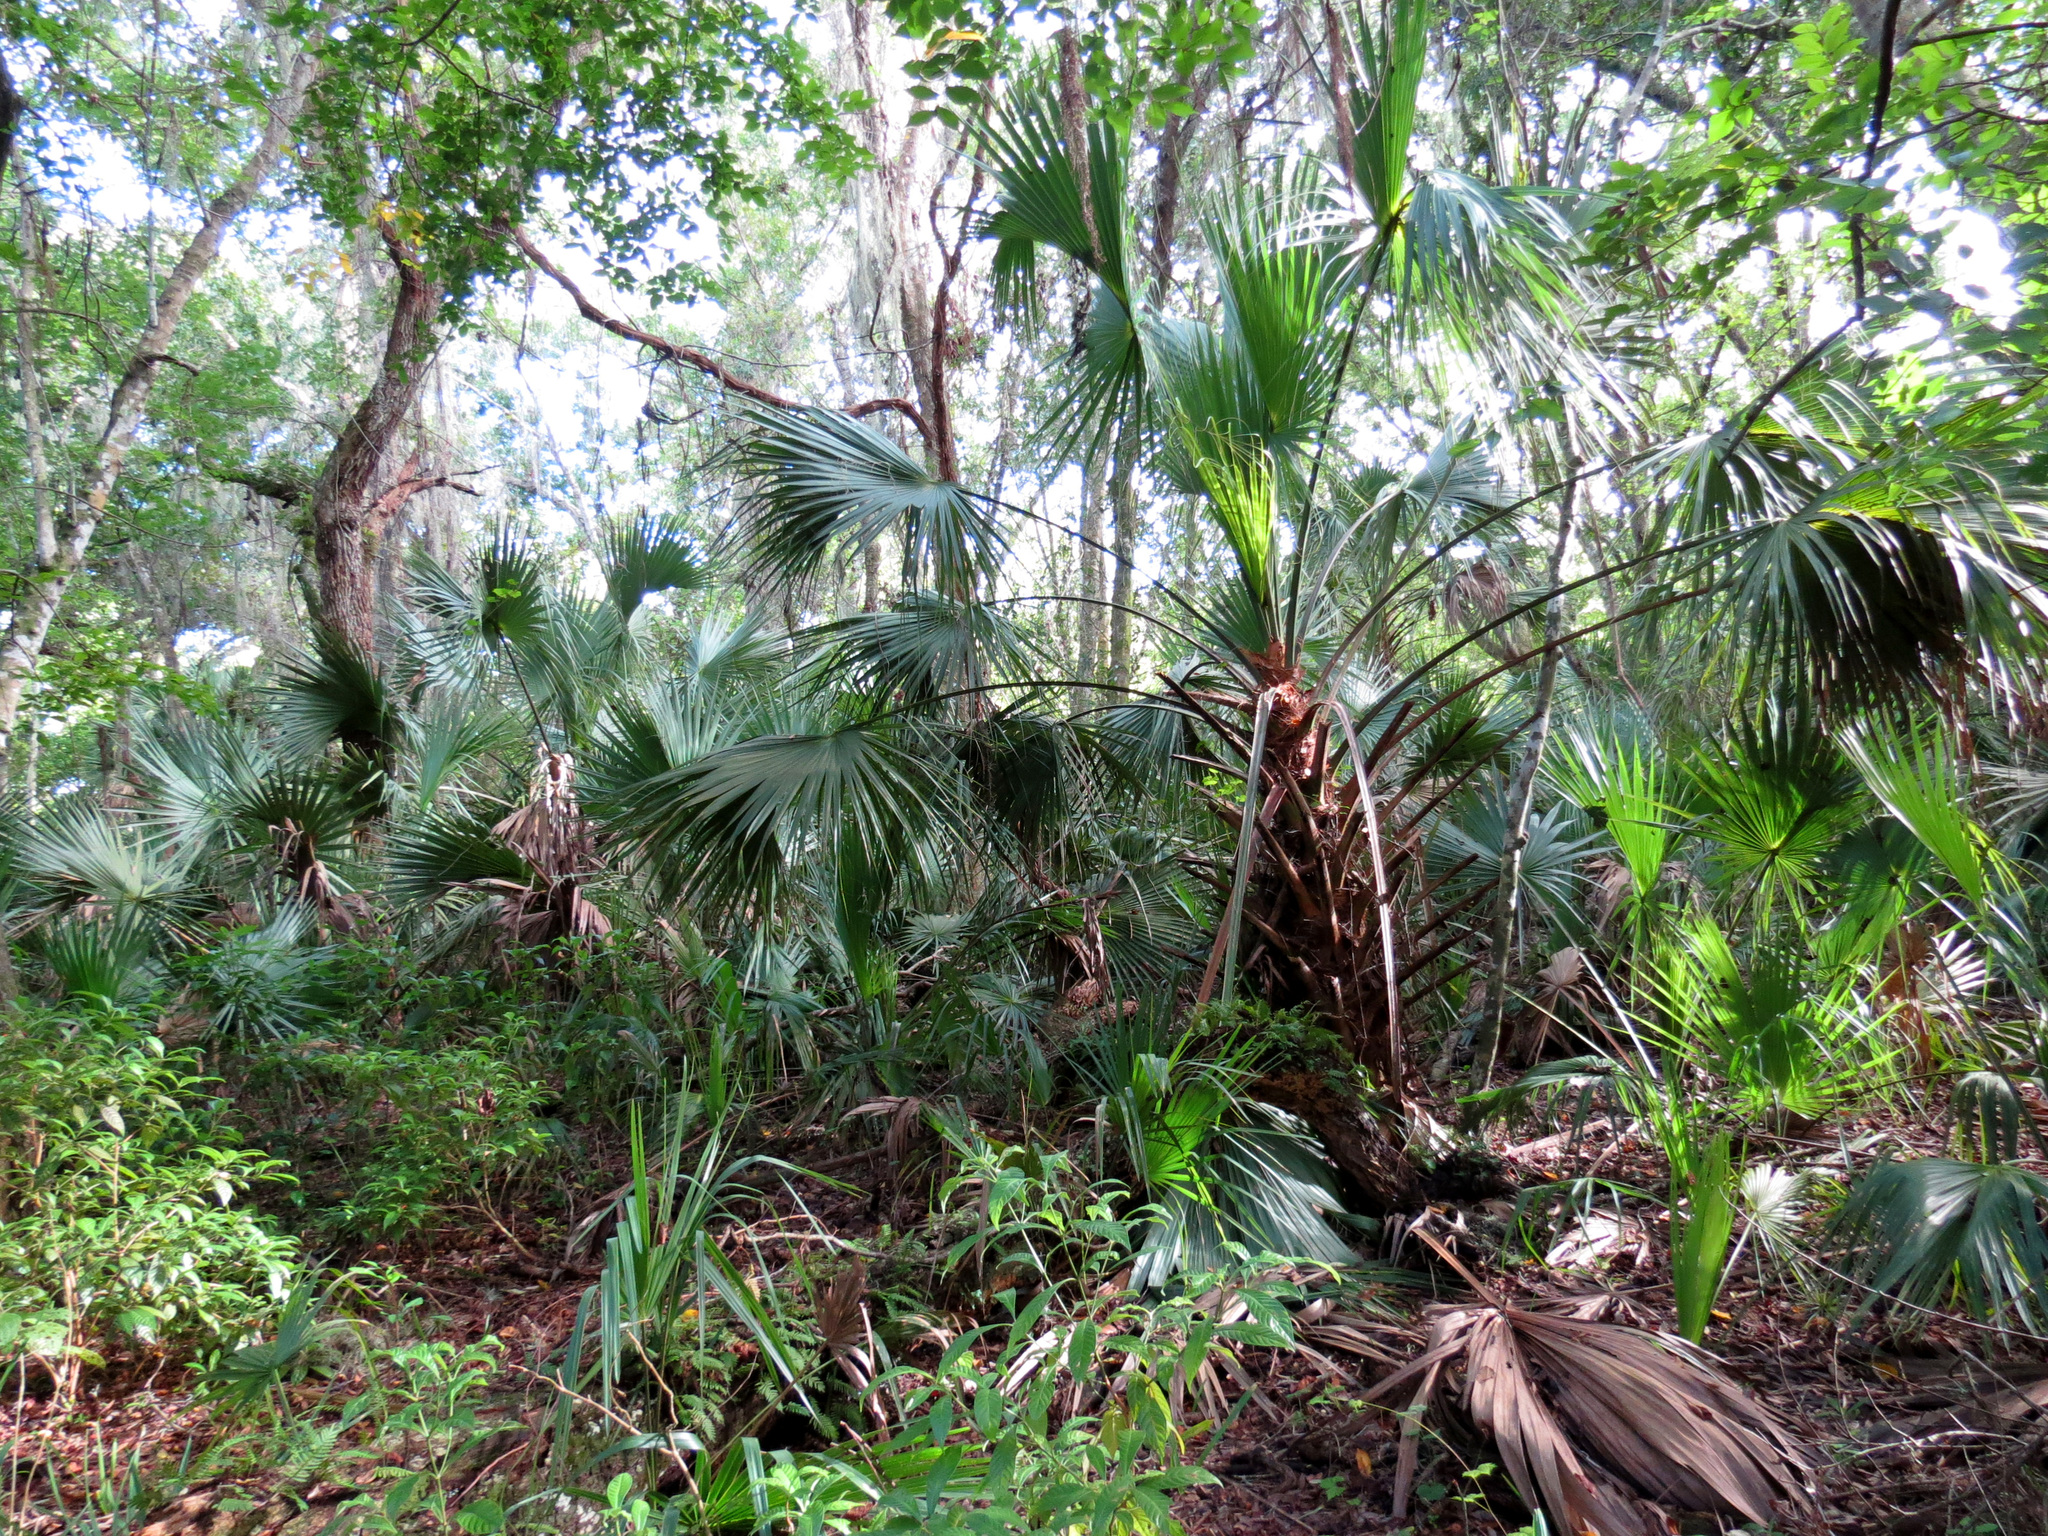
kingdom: Plantae
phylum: Tracheophyta
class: Liliopsida
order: Arecales
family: Arecaceae
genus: Sabal
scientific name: Sabal palmetto
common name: Blue palmetto
